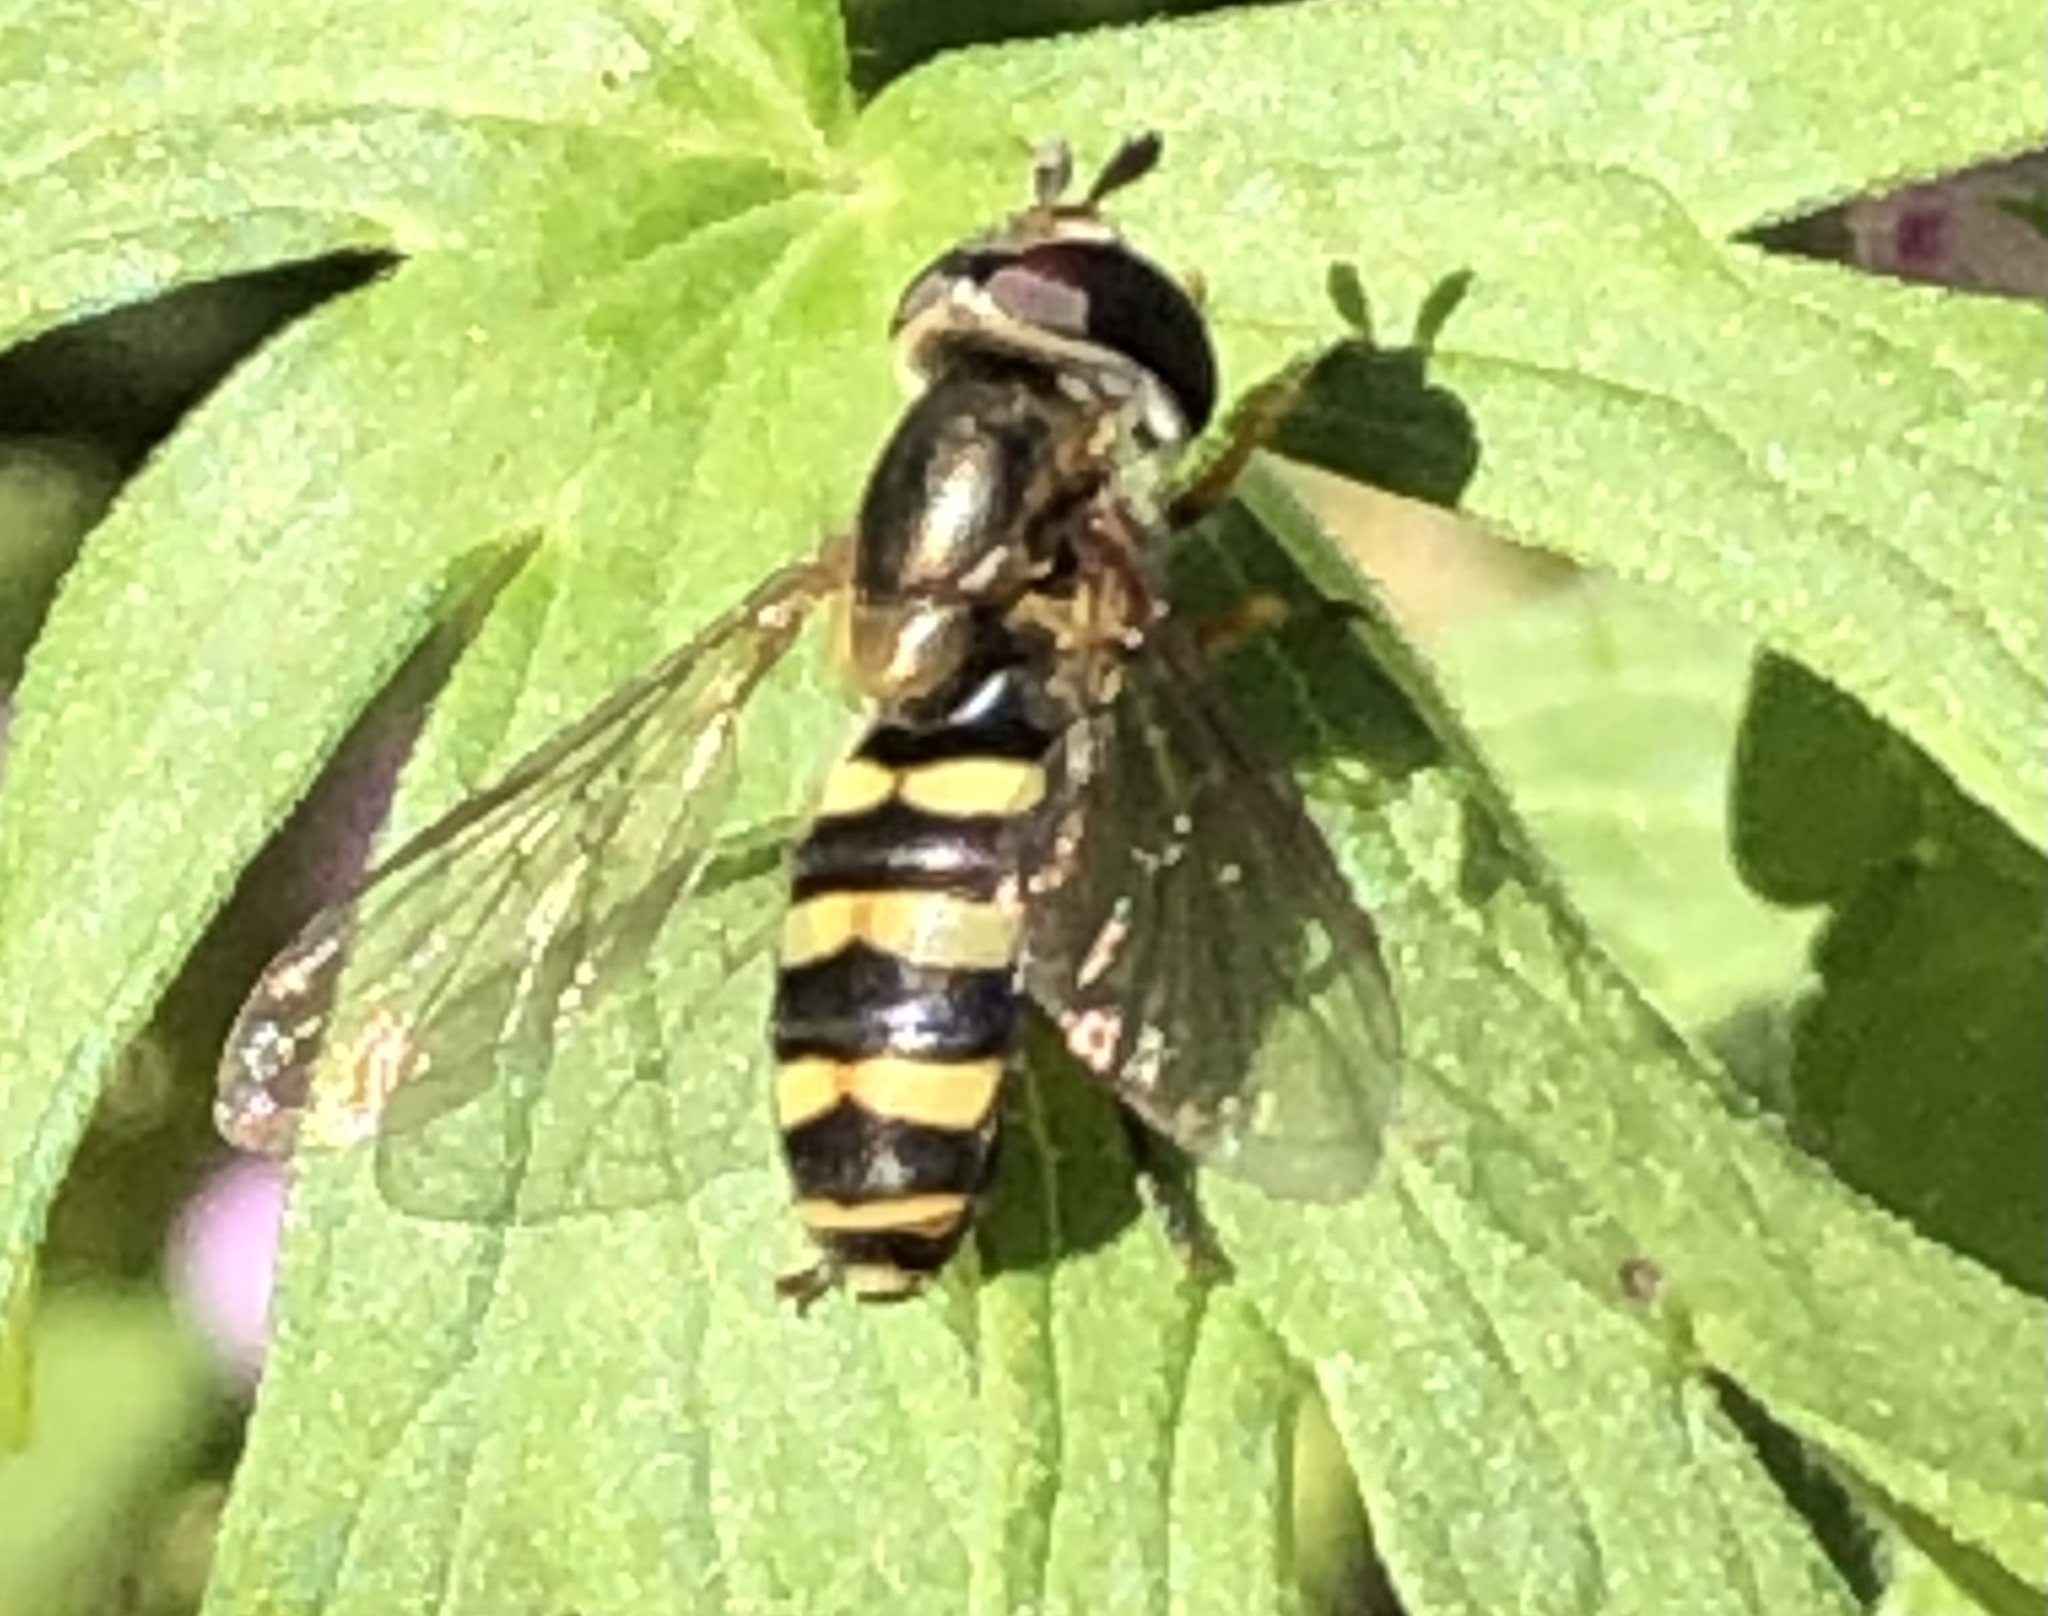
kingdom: Animalia
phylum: Arthropoda
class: Insecta
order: Diptera
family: Syrphidae
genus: Eupeodes
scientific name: Eupeodes
